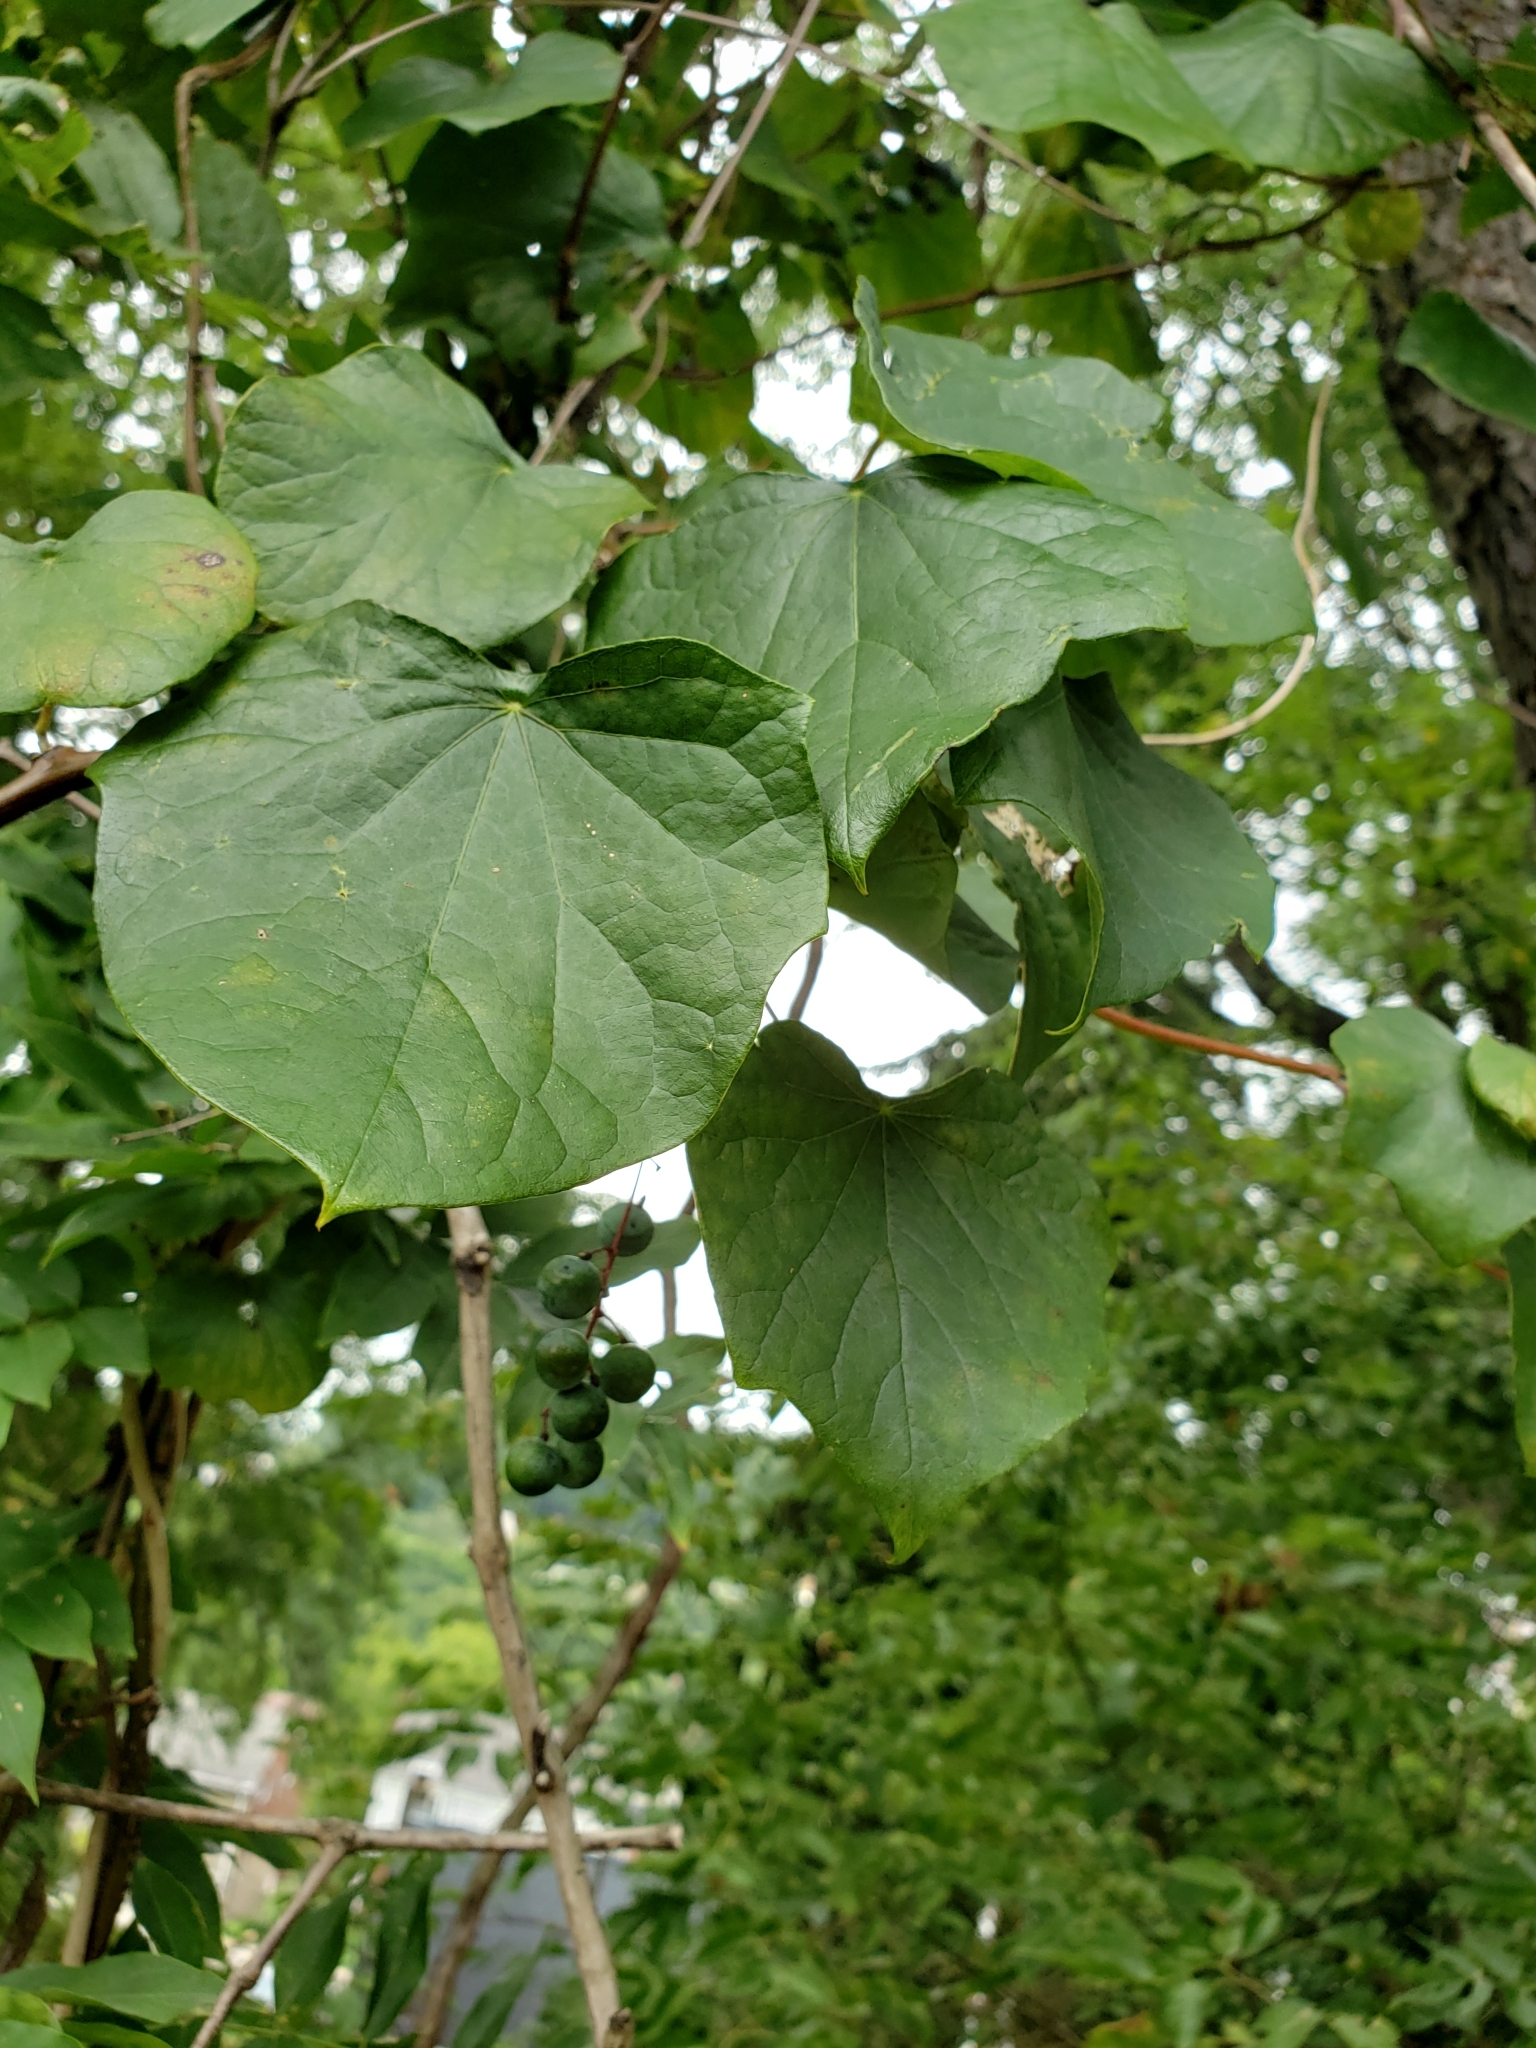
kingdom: Plantae
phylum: Tracheophyta
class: Magnoliopsida
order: Ranunculales
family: Menispermaceae
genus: Menispermum
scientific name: Menispermum canadense
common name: Moonseed
